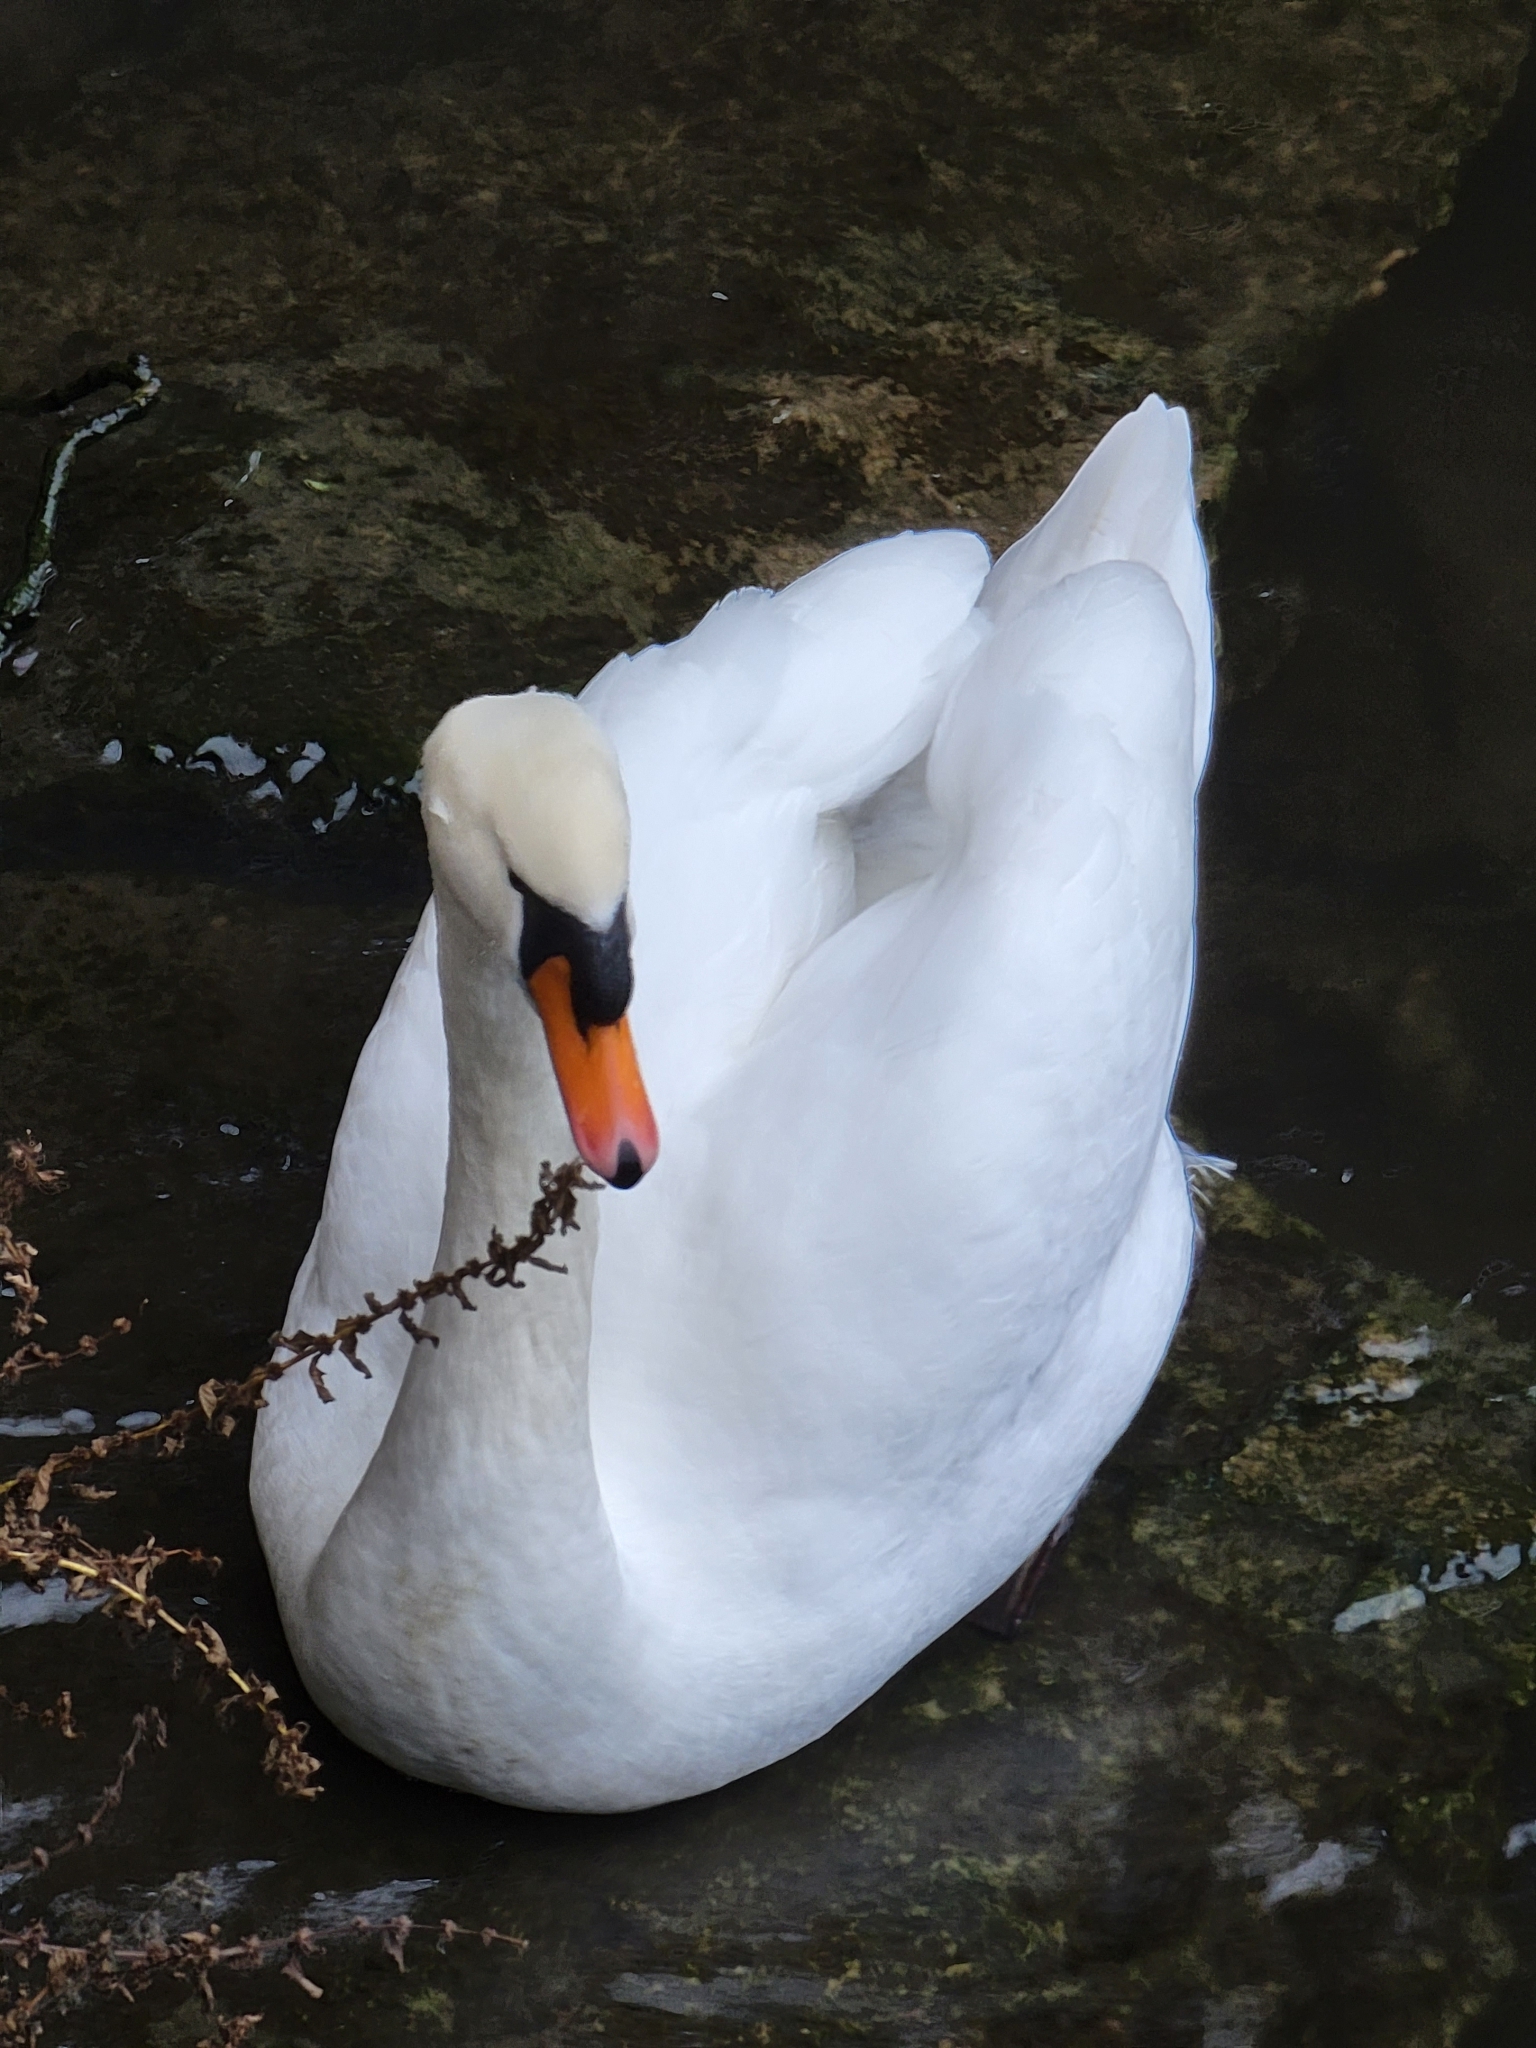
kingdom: Animalia
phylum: Chordata
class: Aves
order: Anseriformes
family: Anatidae
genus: Cygnus
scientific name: Cygnus olor
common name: Mute swan
